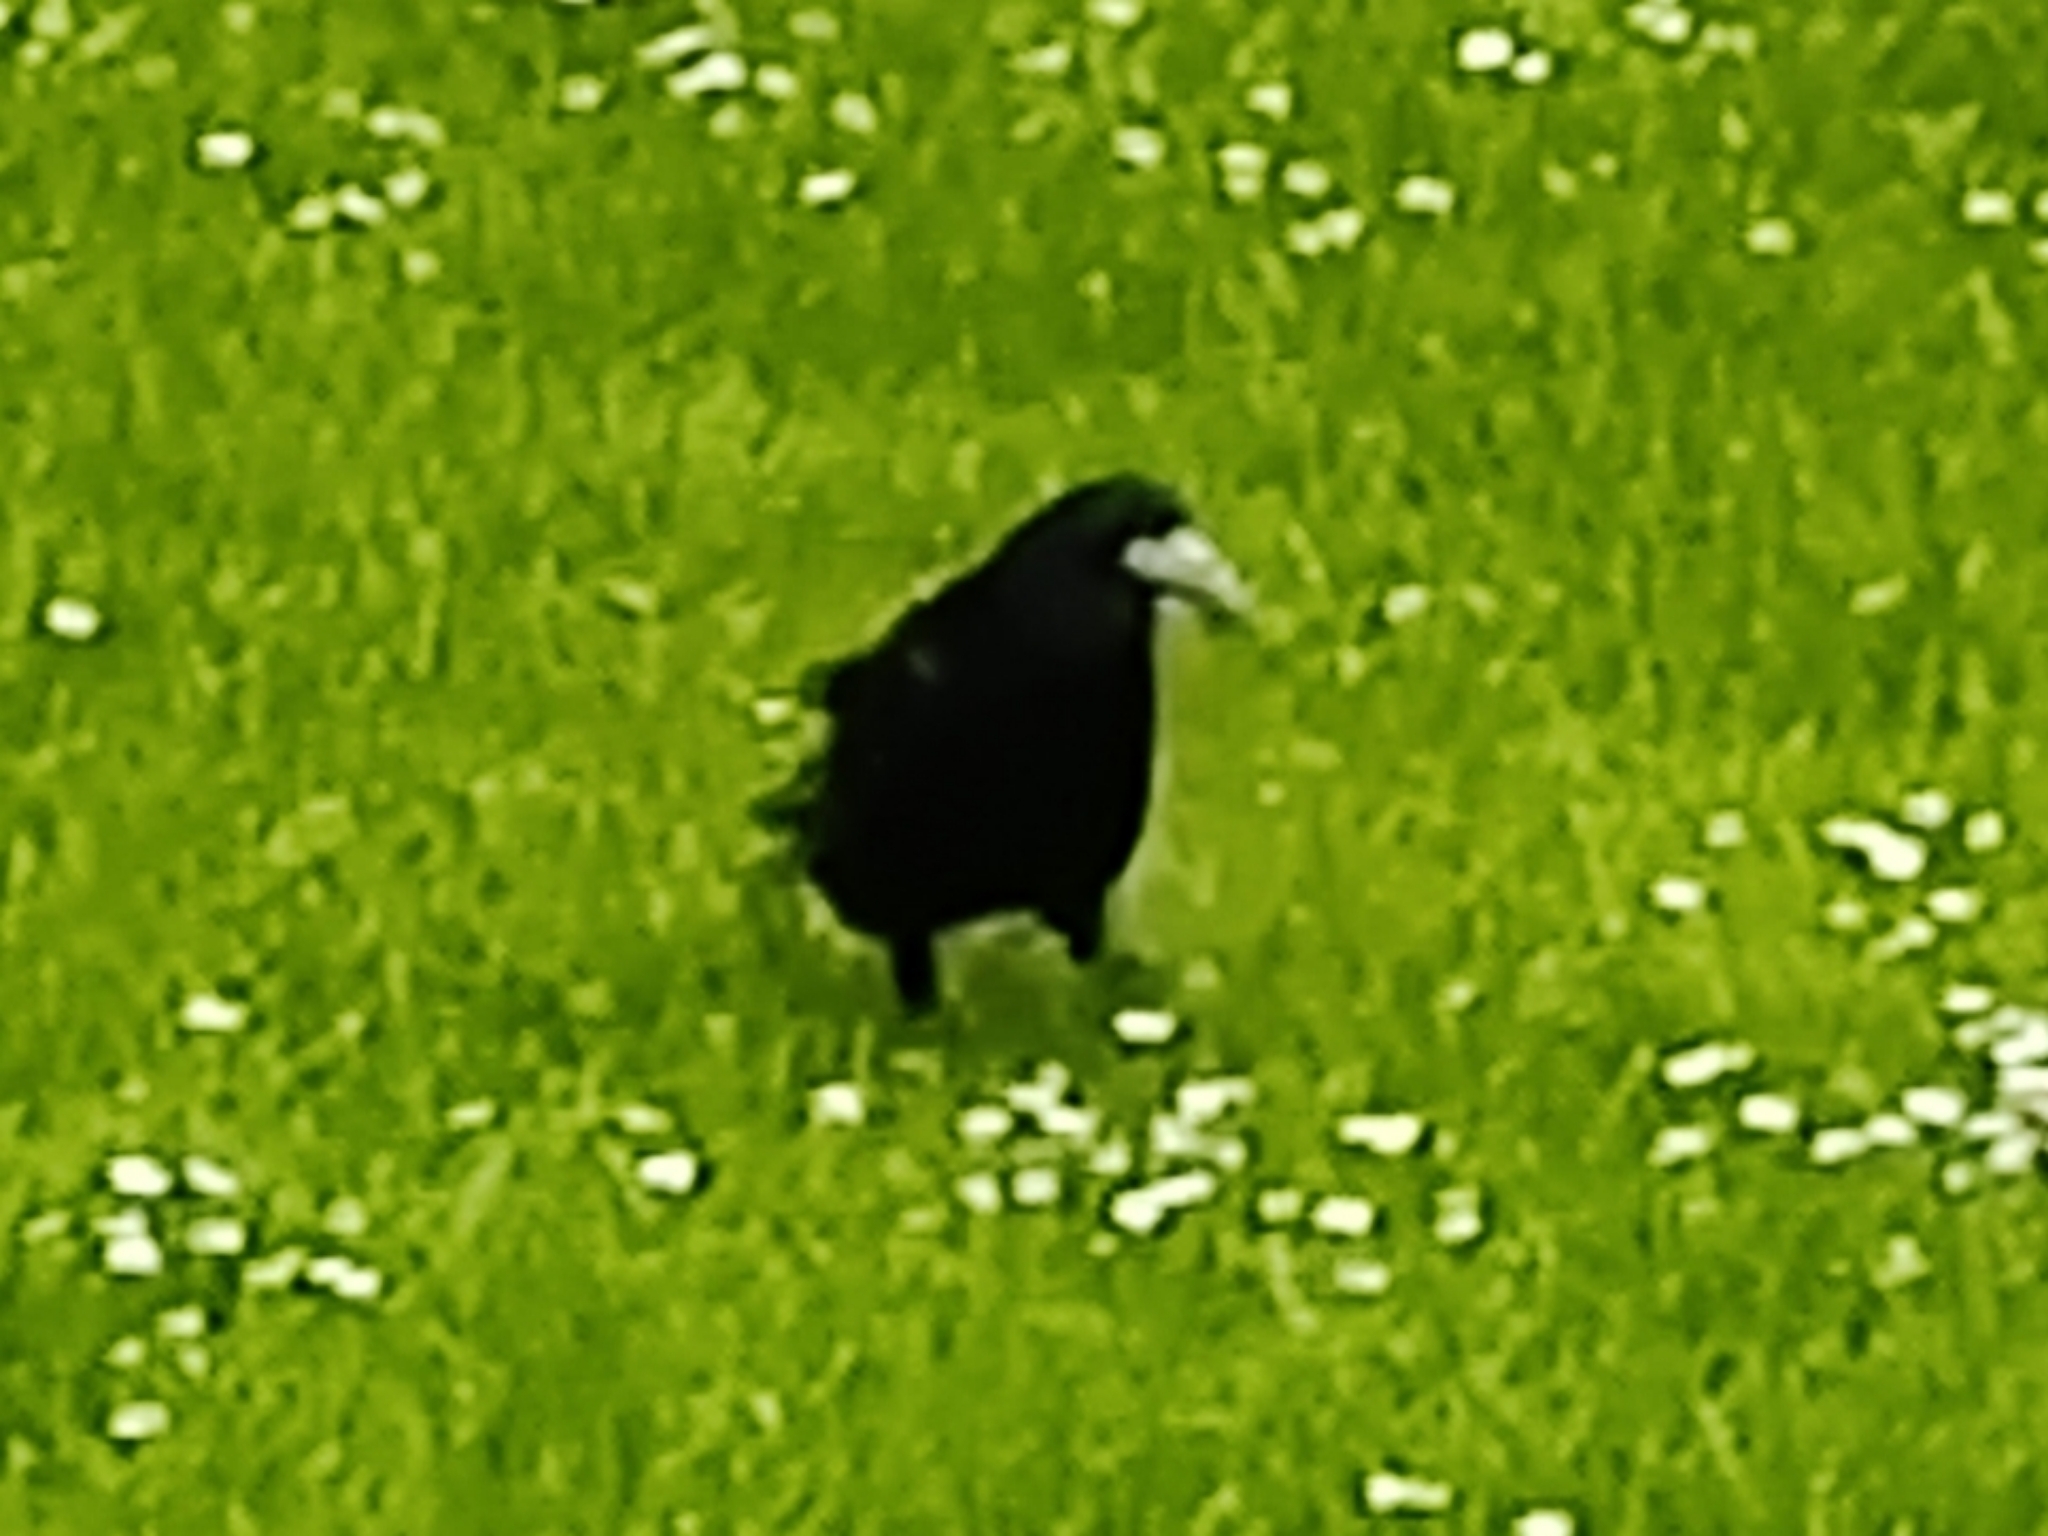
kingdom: Animalia
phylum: Chordata
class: Aves
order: Passeriformes
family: Corvidae
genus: Corvus
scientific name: Corvus frugilegus
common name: Rook
